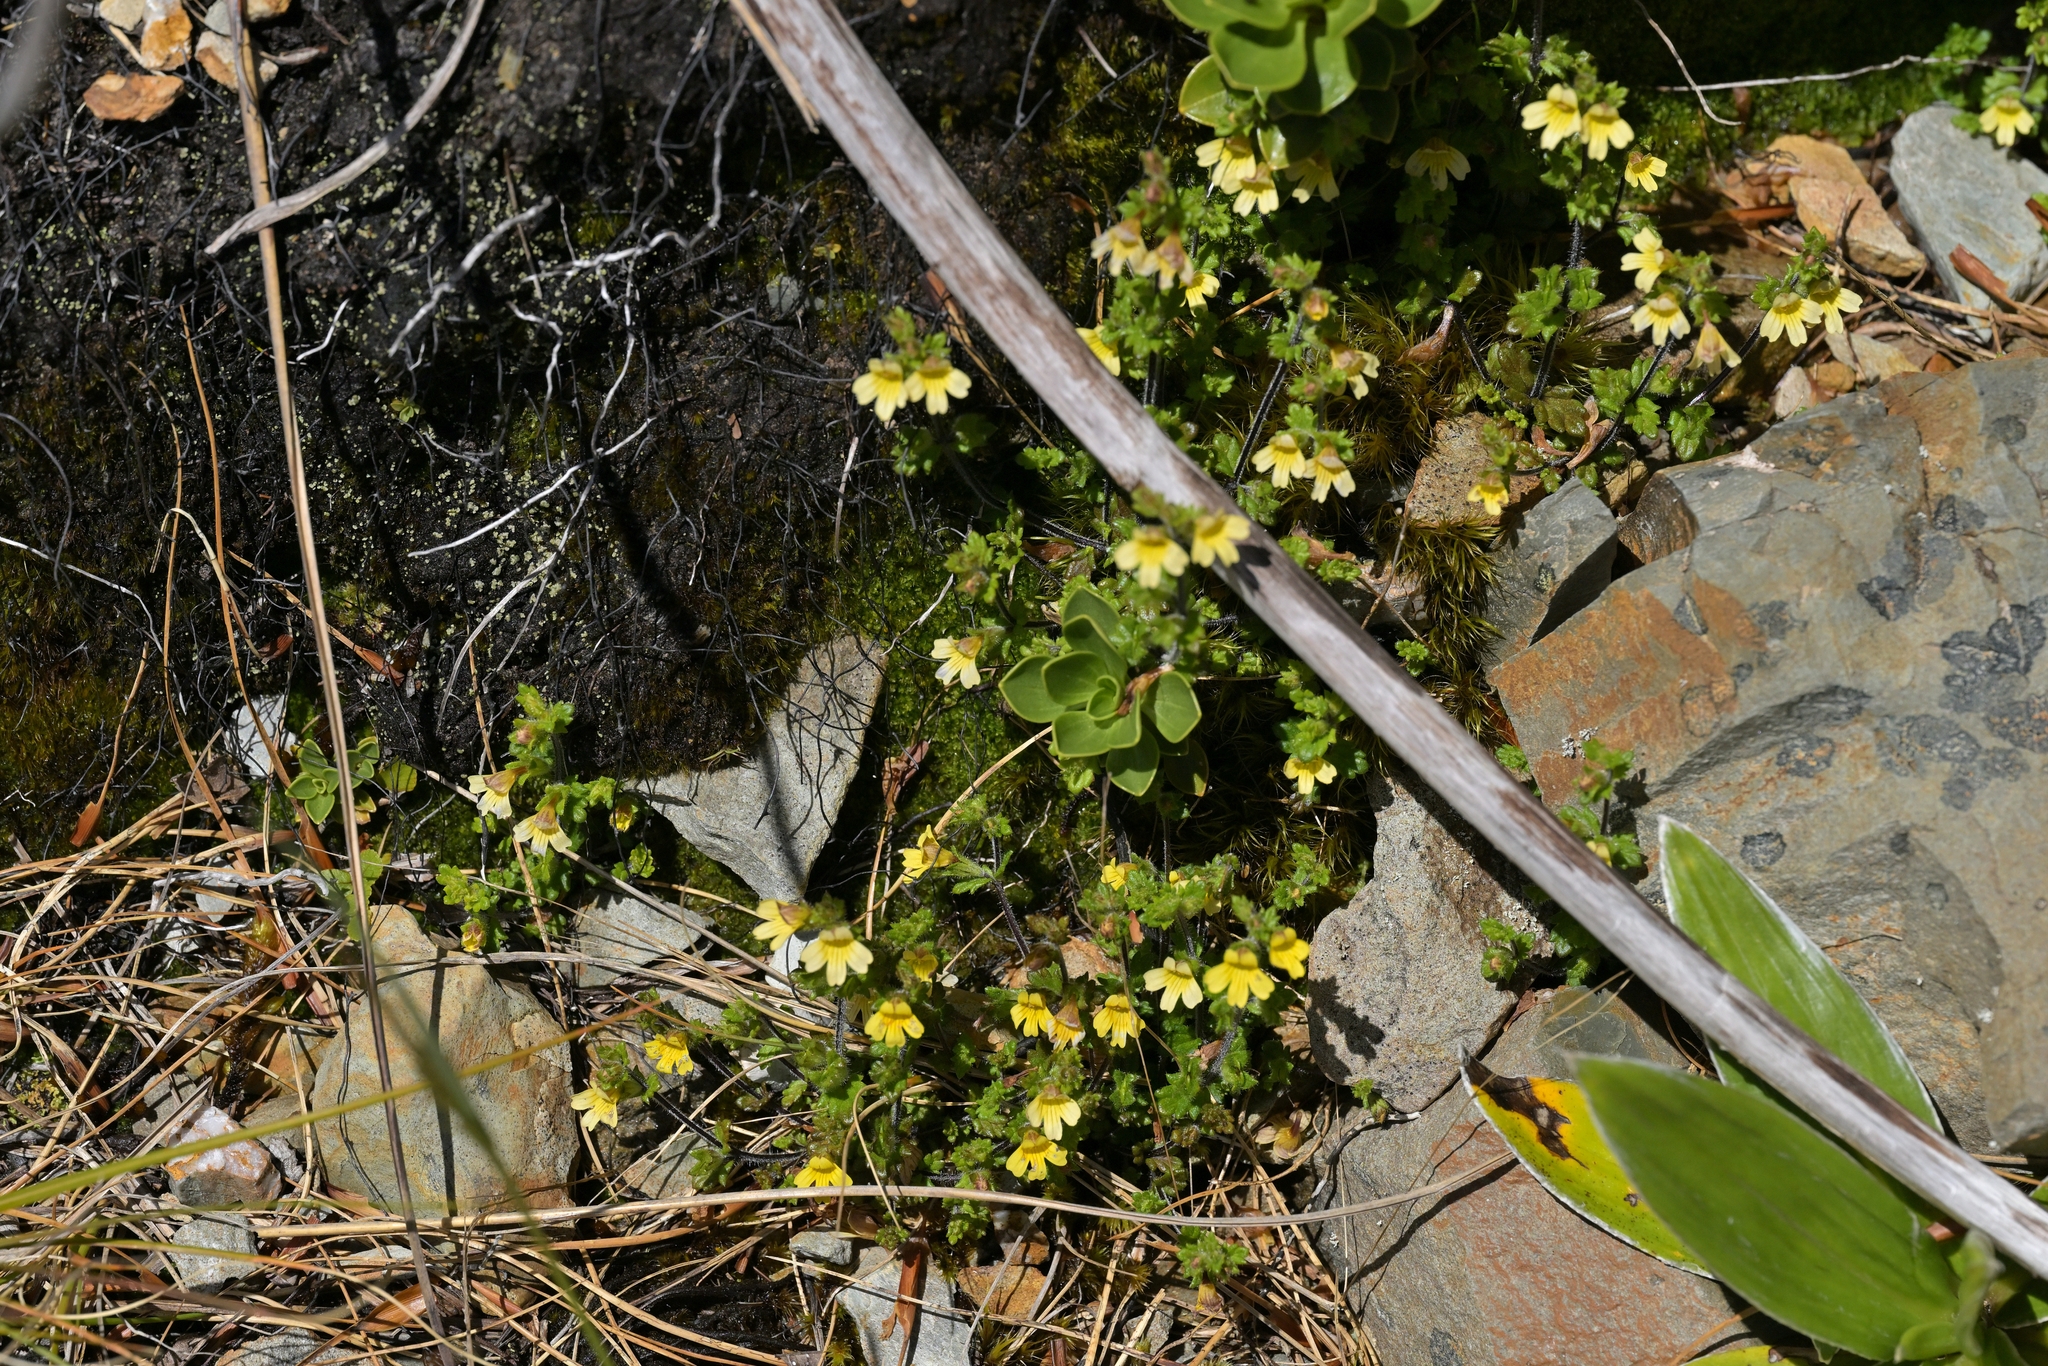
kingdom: Plantae
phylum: Tracheophyta
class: Magnoliopsida
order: Lamiales
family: Orobanchaceae
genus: Euphrasia
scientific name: Euphrasia cockayneana
